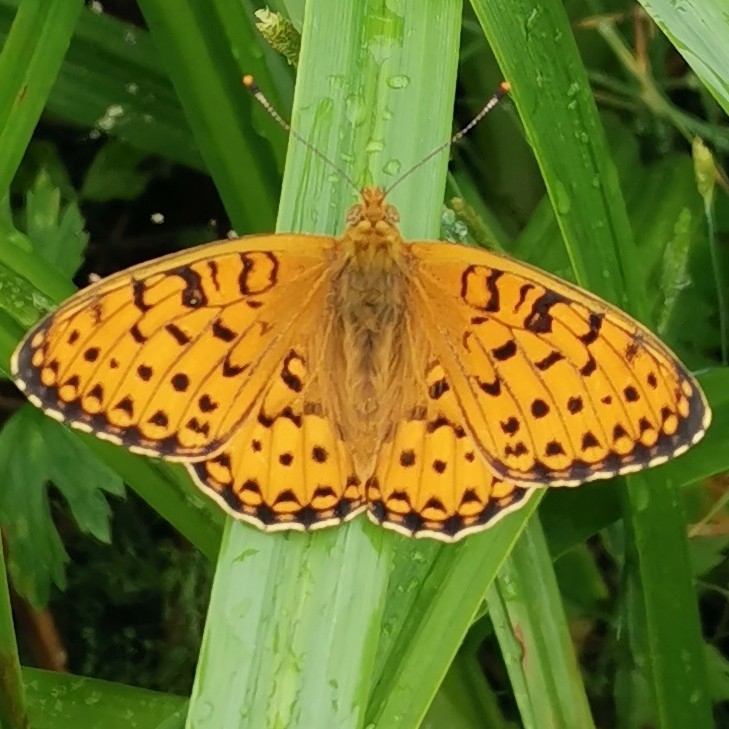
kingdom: Animalia
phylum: Arthropoda
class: Insecta
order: Lepidoptera
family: Nymphalidae
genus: Speyeria
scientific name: Speyeria aglaja
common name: Dark green fritillary
